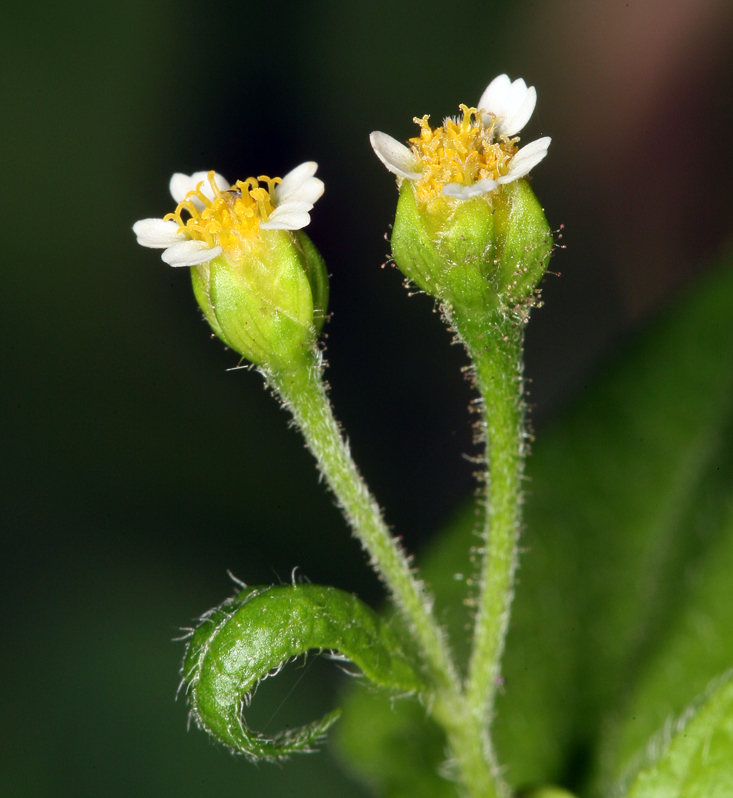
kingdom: Plantae
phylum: Tracheophyta
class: Magnoliopsida
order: Asterales
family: Asteraceae
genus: Galinsoga
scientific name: Galinsoga parviflora
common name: Gallant soldier
